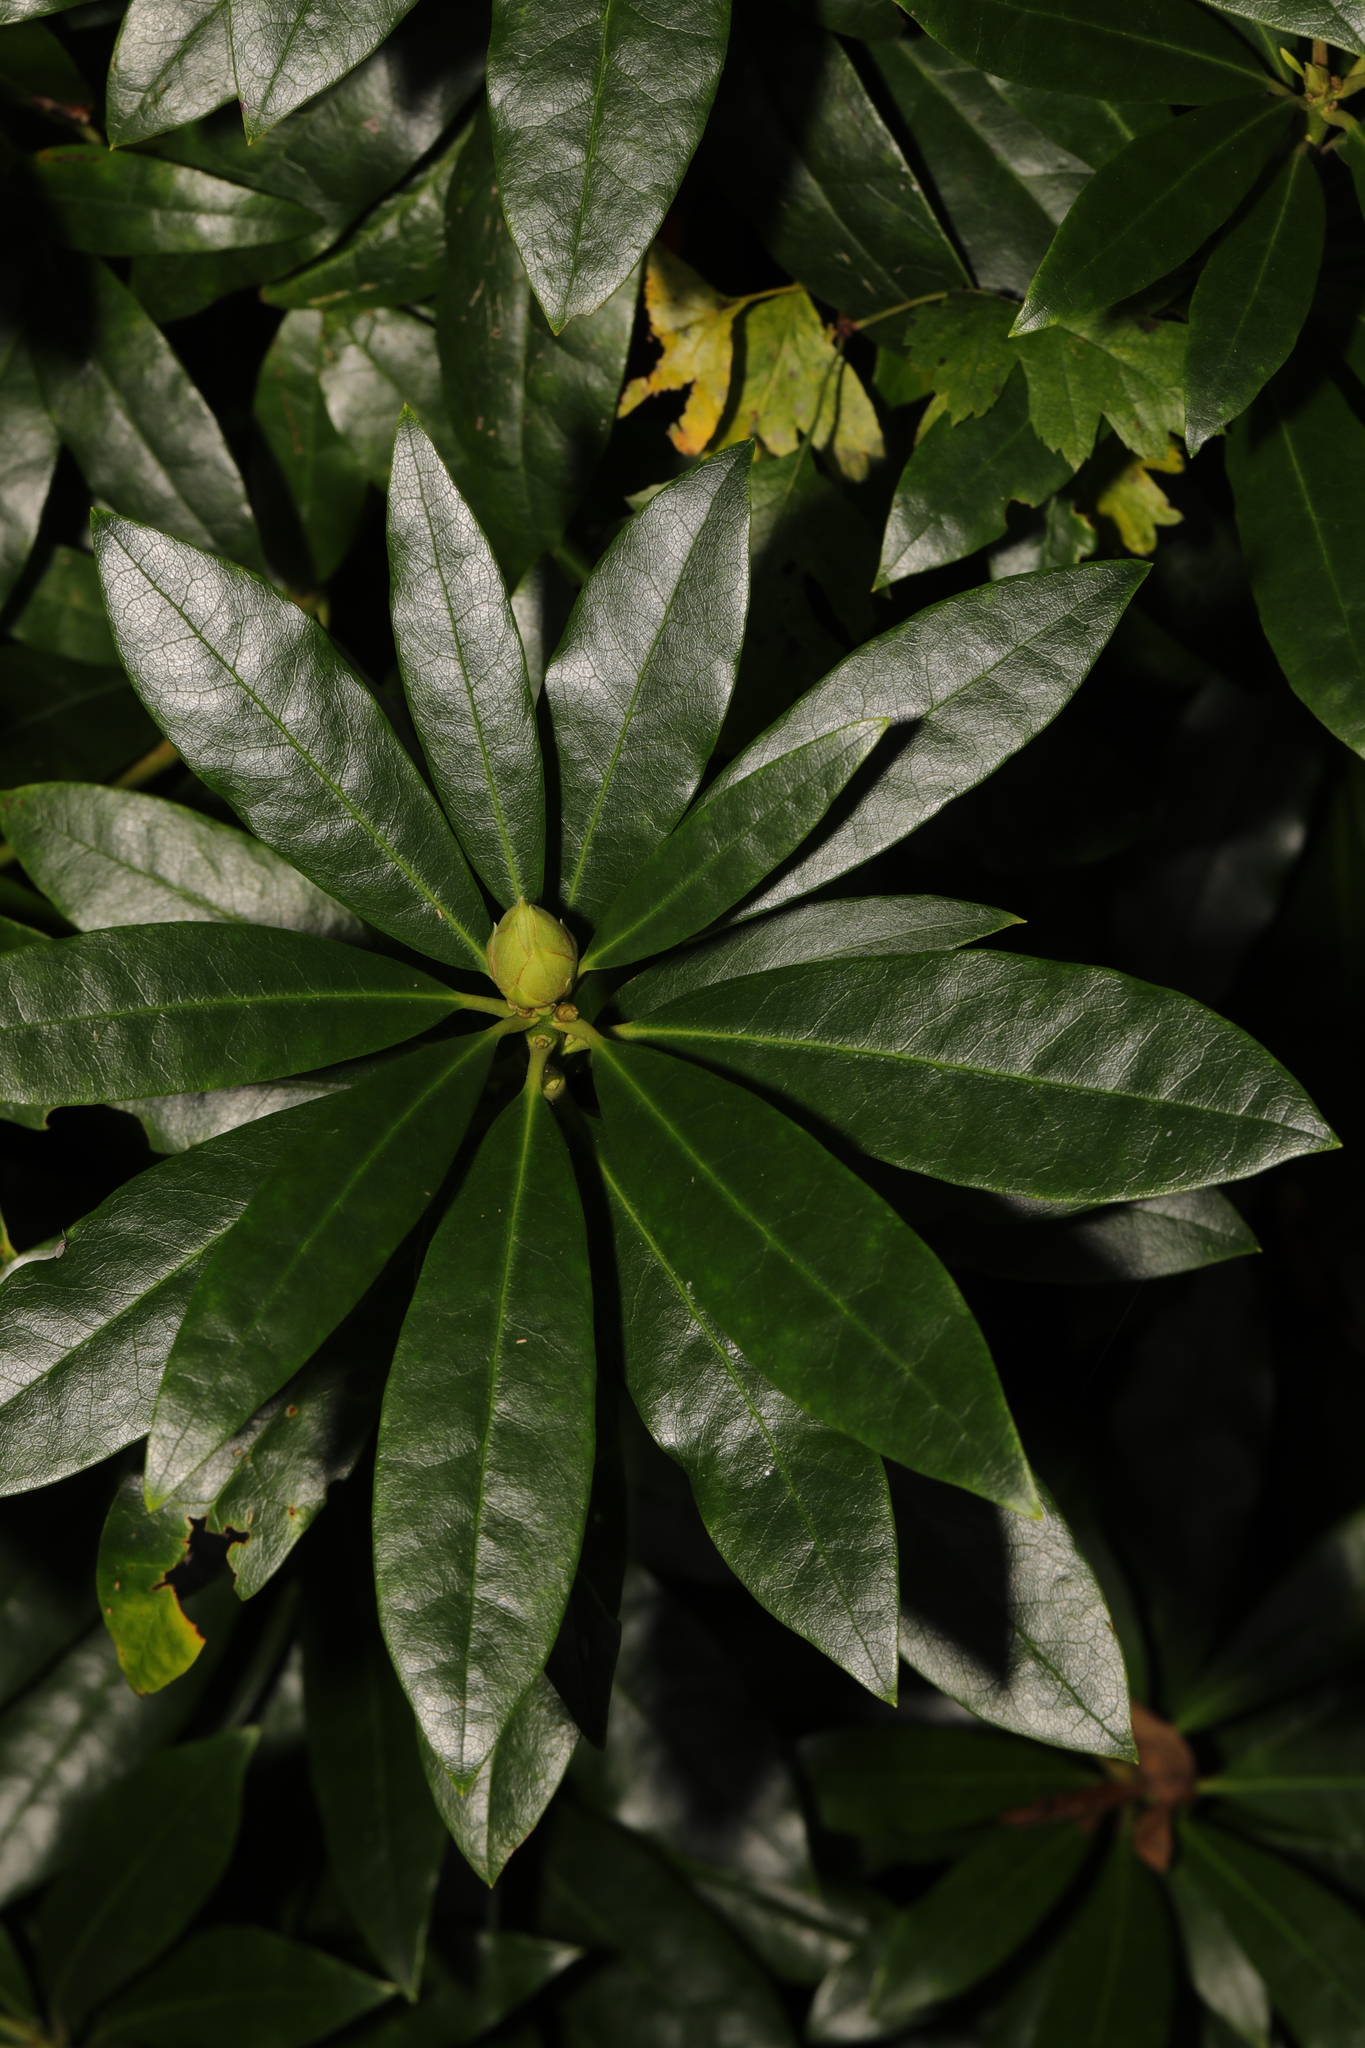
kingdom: Plantae
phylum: Tracheophyta
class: Magnoliopsida
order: Ericales
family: Ericaceae
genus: Rhododendron
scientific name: Rhododendron ponticum
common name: Rhododendron
